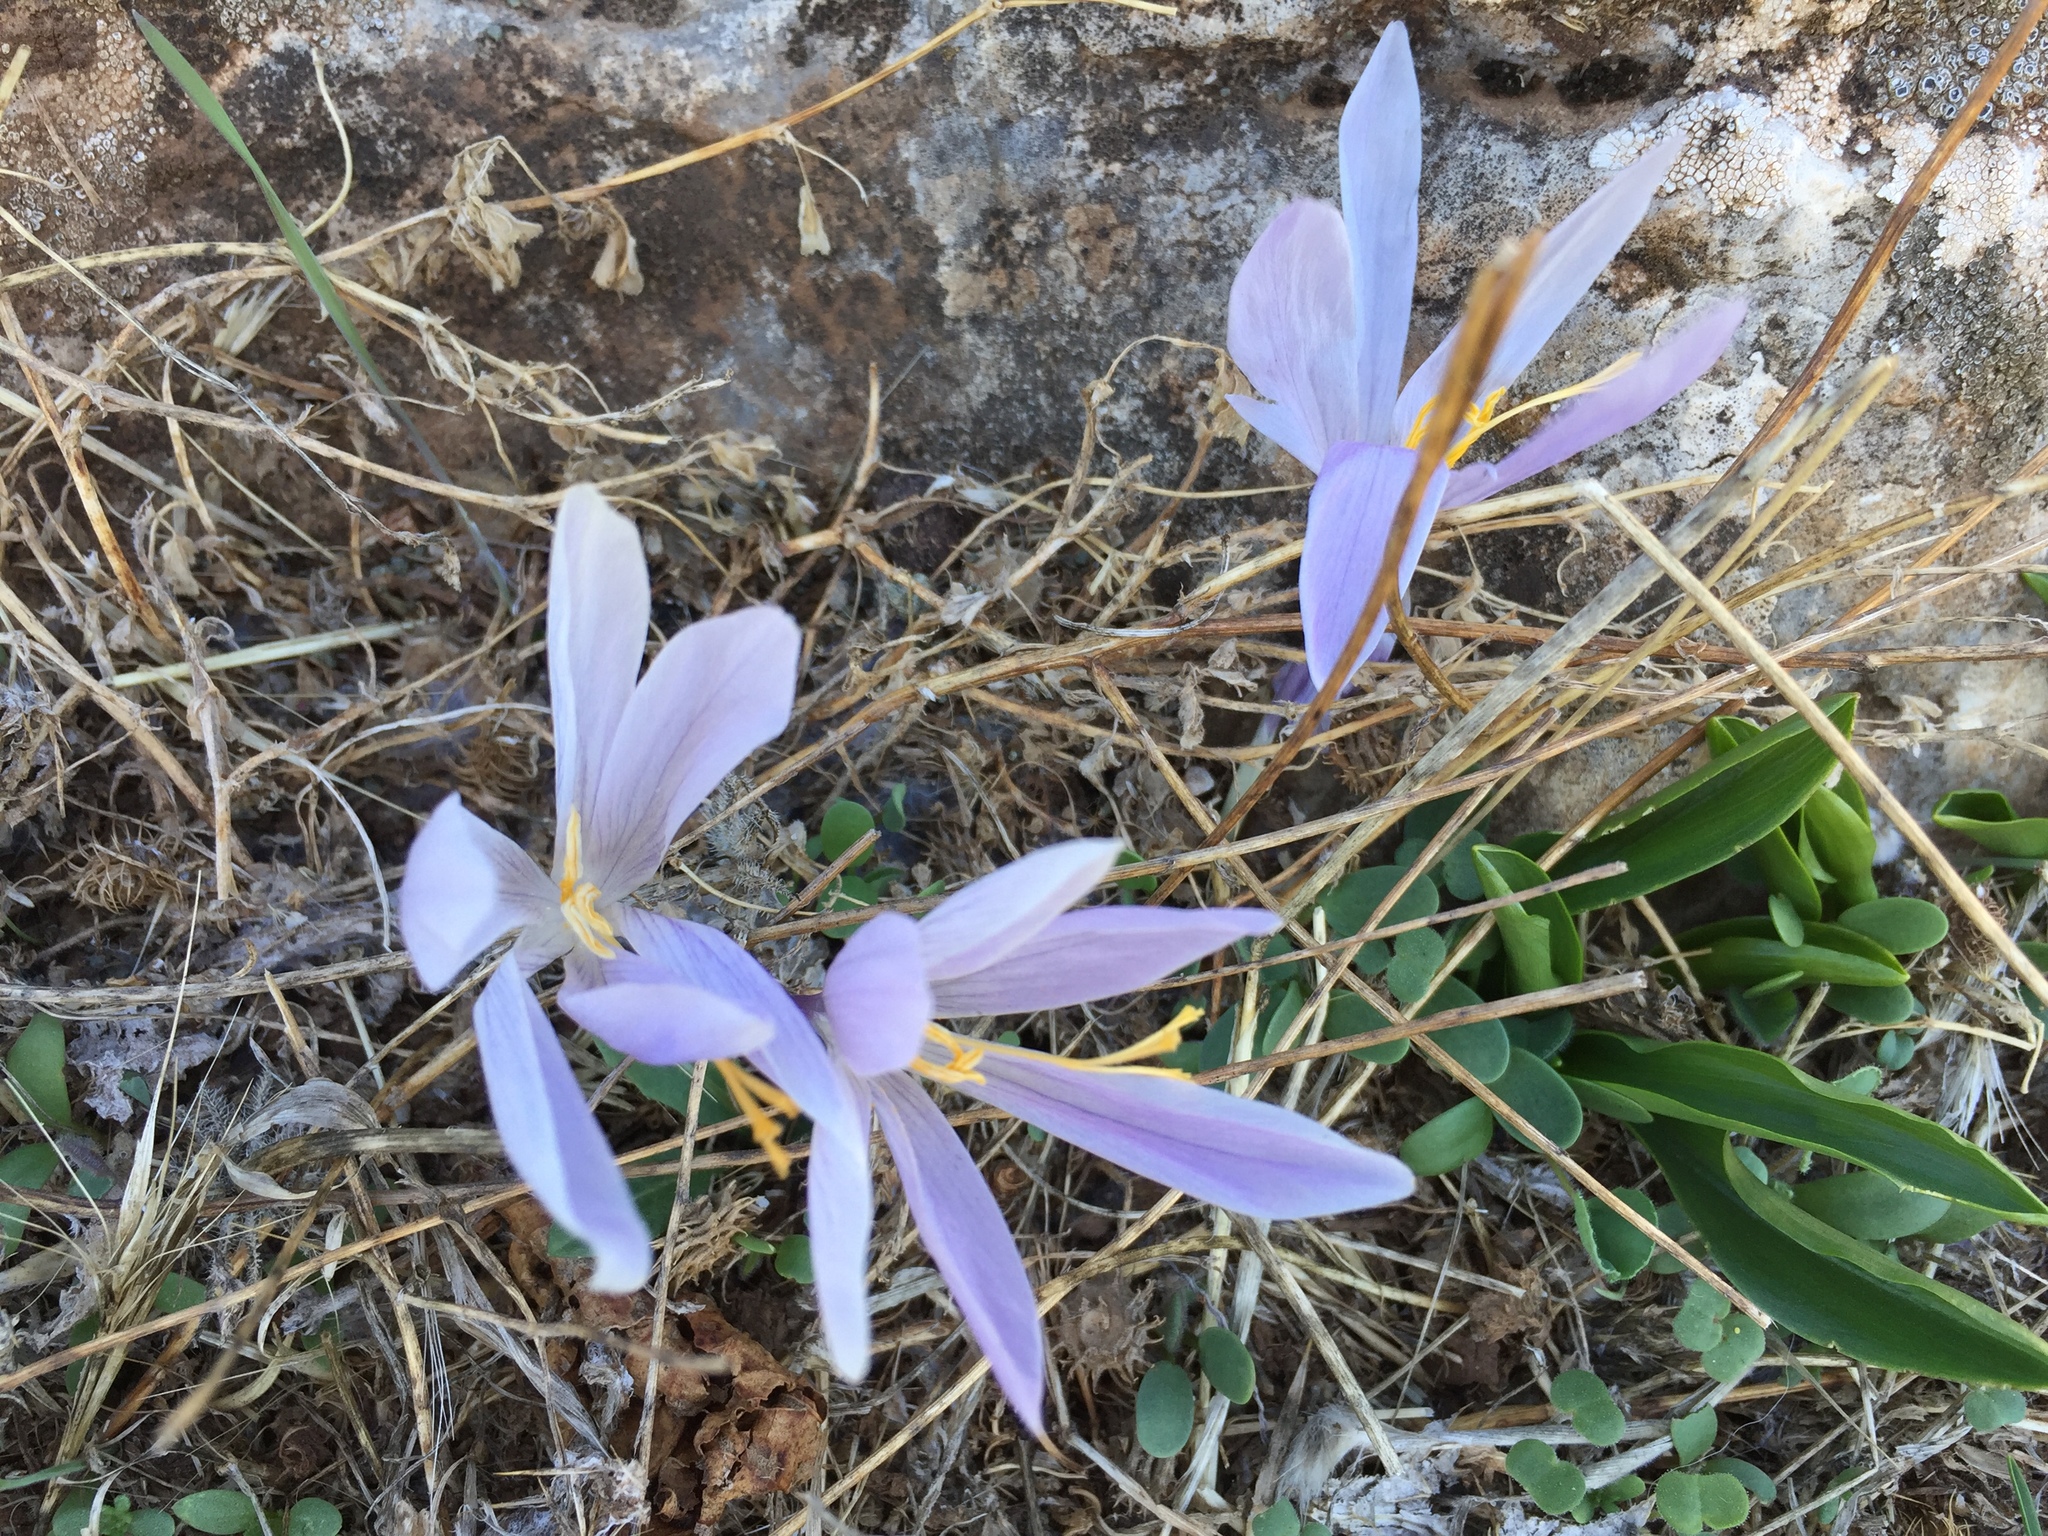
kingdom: Plantae
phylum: Tracheophyta
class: Liliopsida
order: Asparagales
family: Iridaceae
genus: Crocus
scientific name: Crocus serotinus
